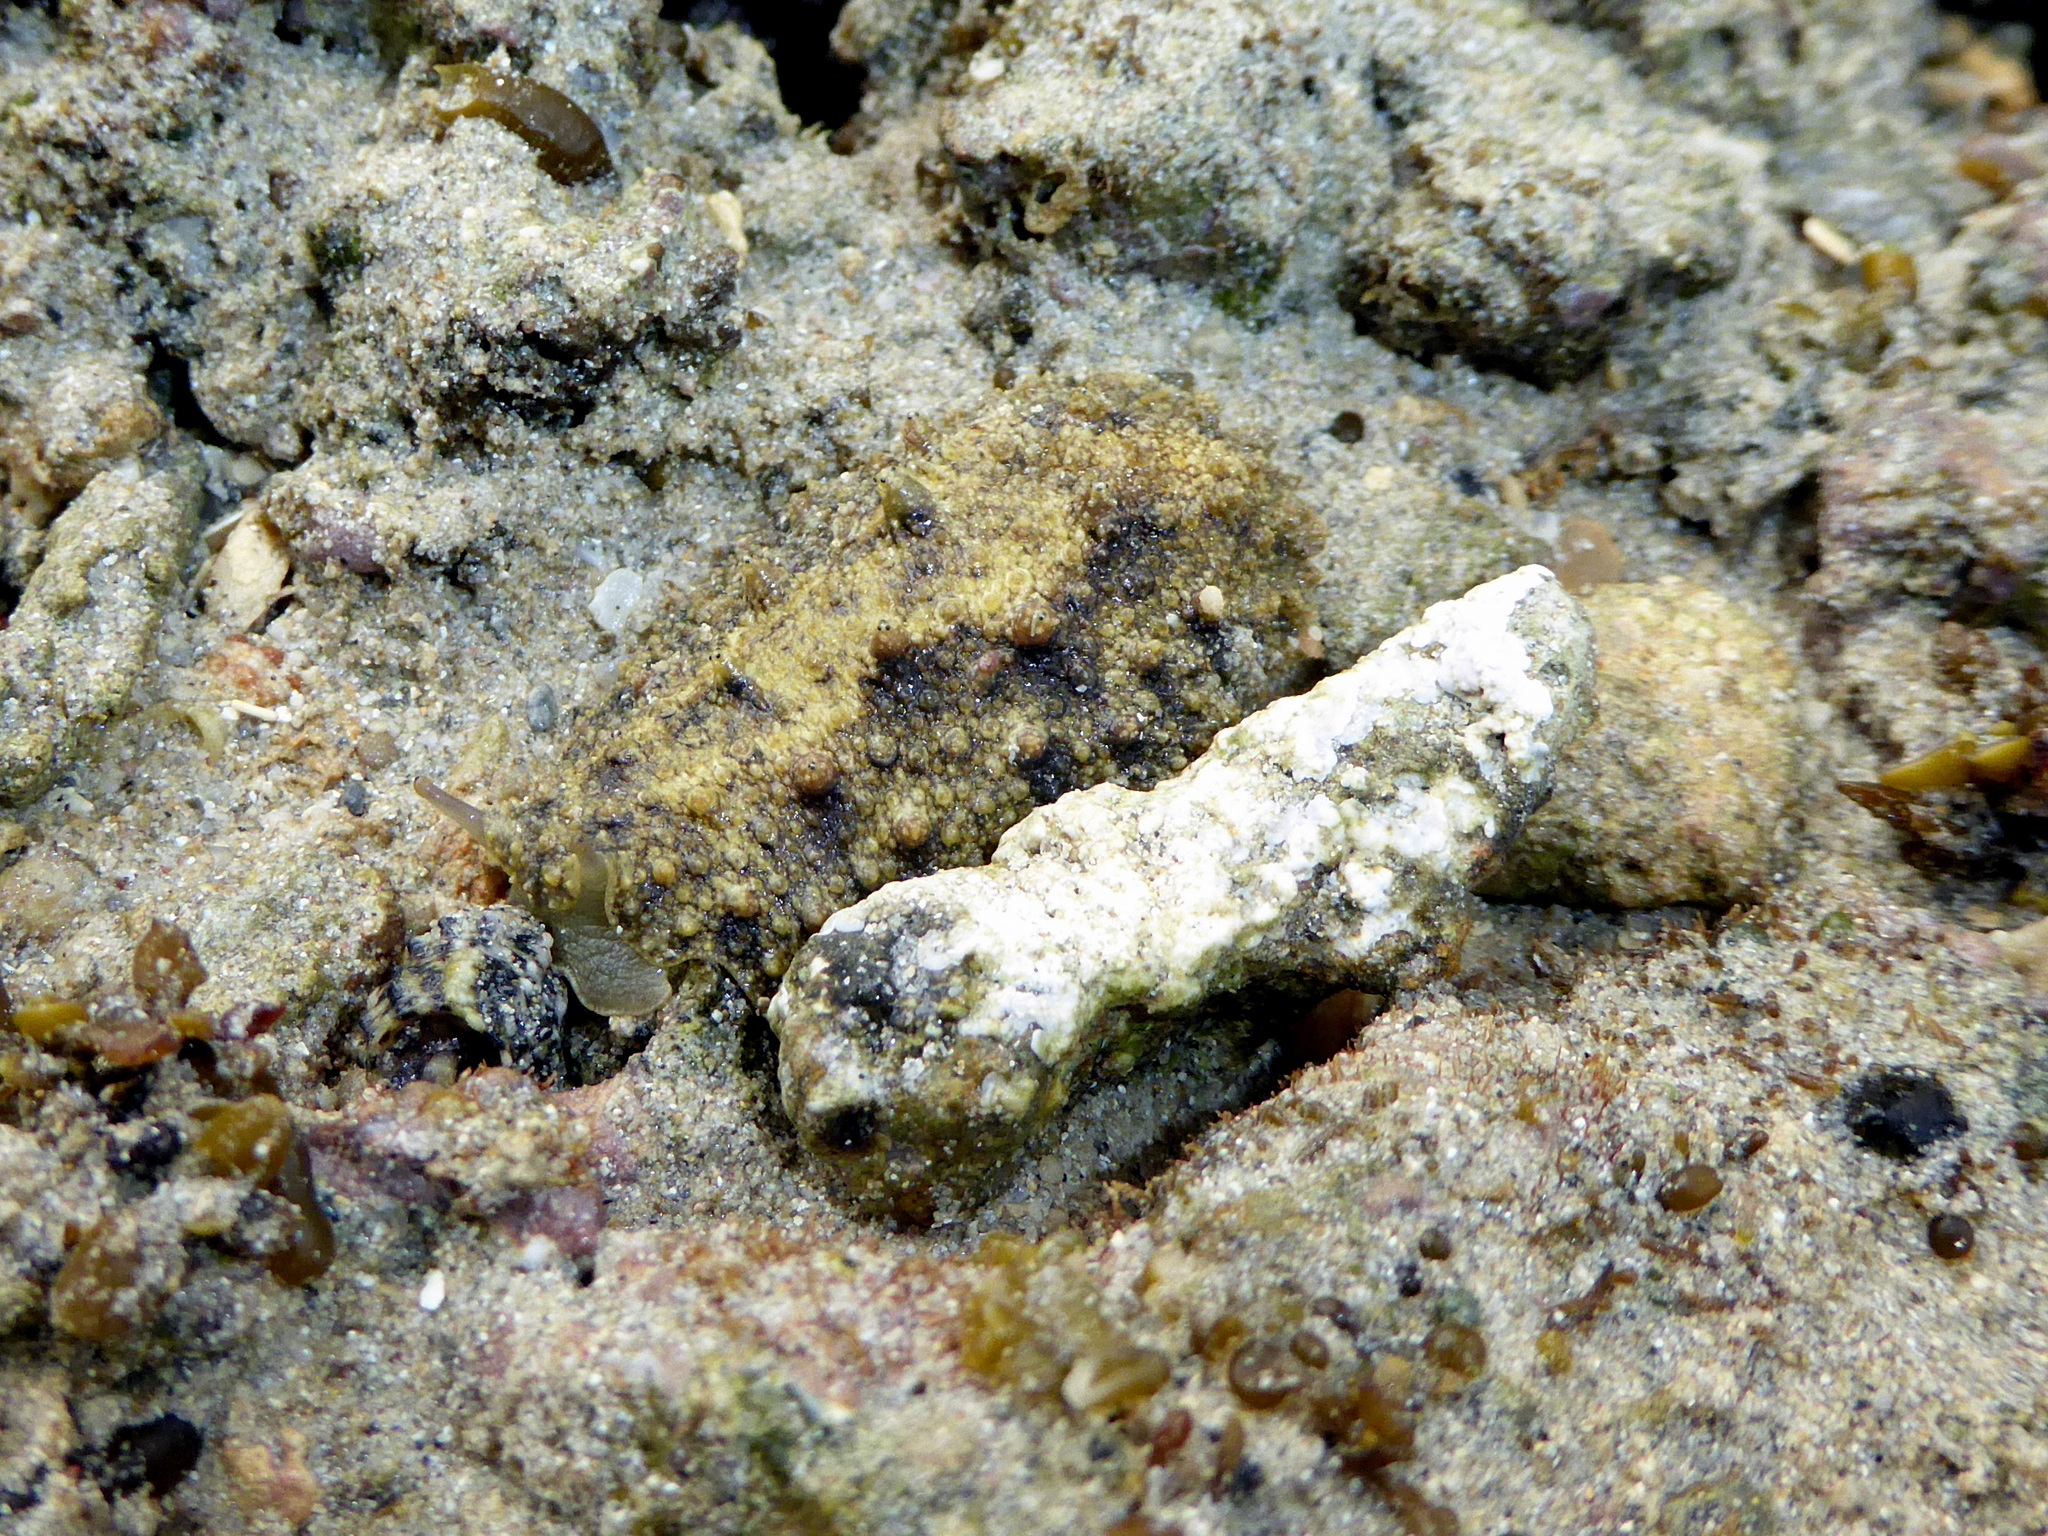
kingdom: Animalia
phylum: Mollusca
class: Gastropoda
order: Systellommatophora
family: Onchidiidae
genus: Peronia
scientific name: Peronia verruculata
